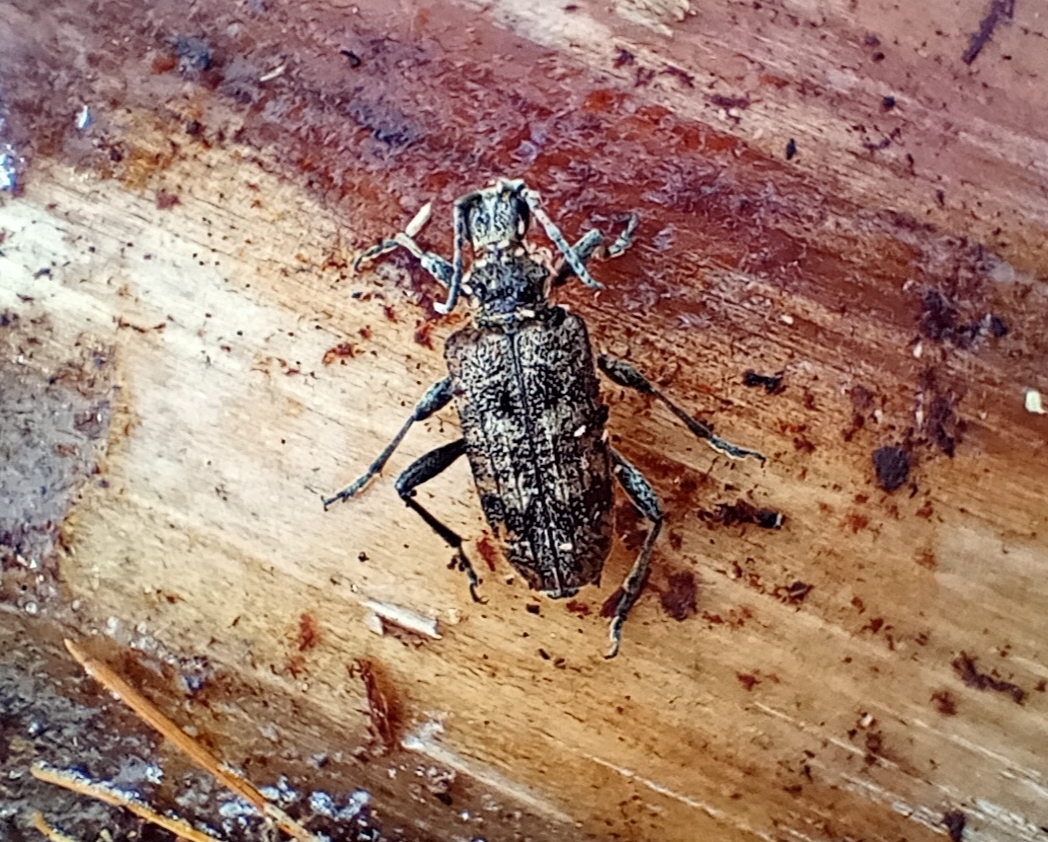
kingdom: Animalia
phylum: Arthropoda
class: Insecta
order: Coleoptera
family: Cerambycidae
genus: Rhagium
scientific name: Rhagium inquisitor
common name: Ribbed pine borer
